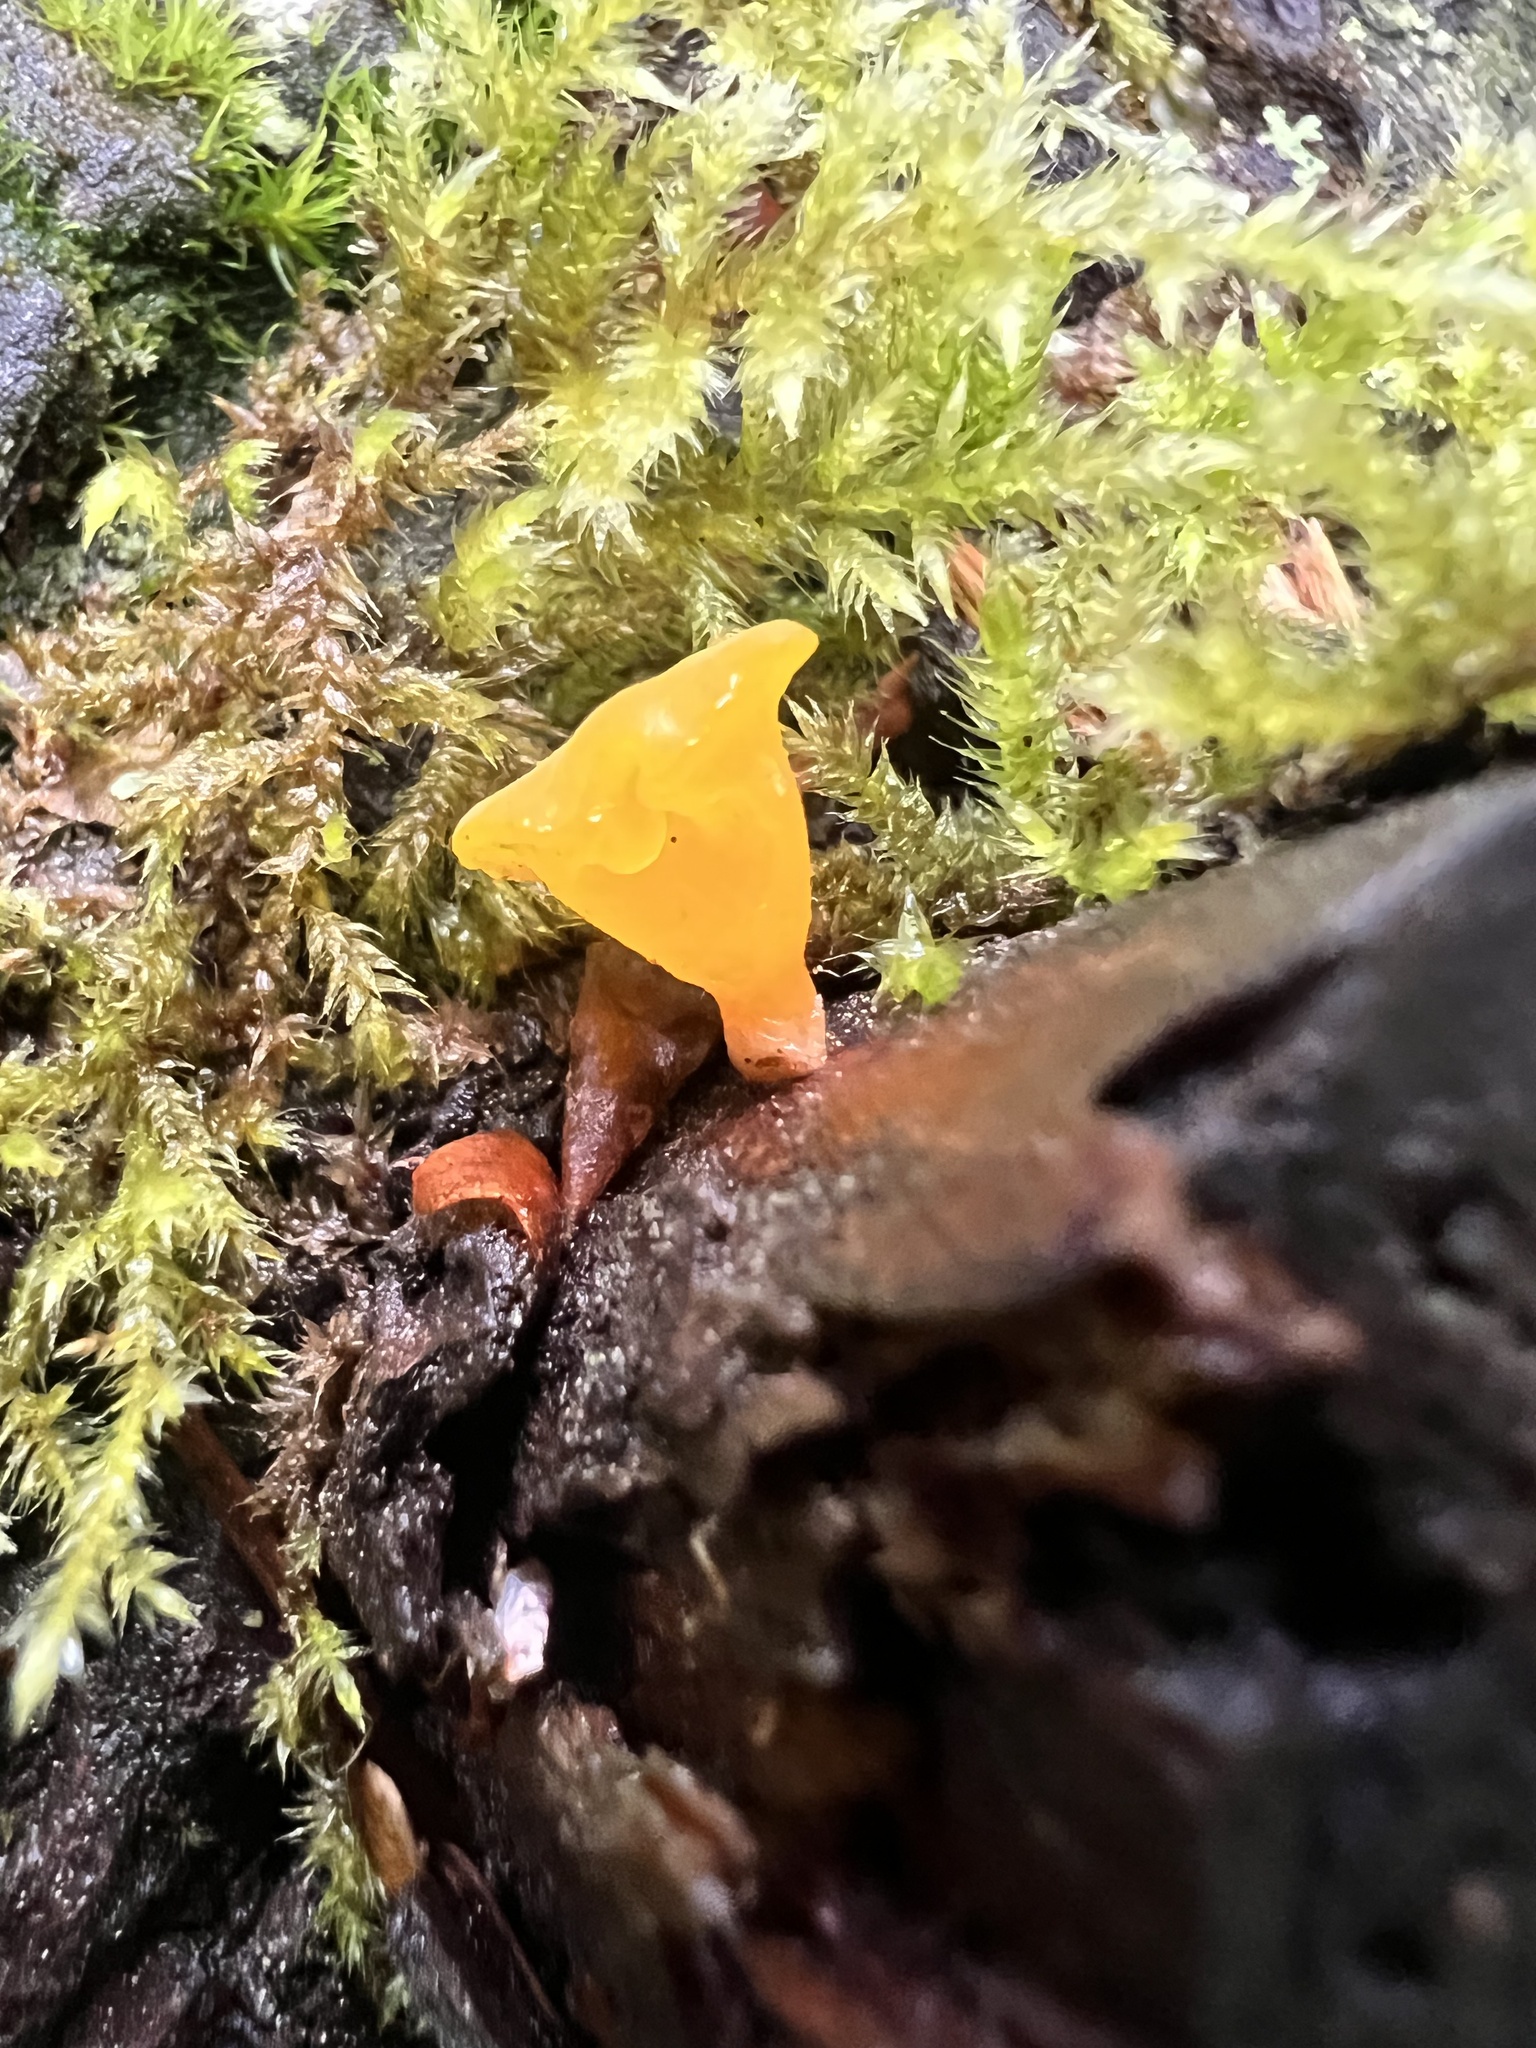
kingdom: Fungi
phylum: Basidiomycota
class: Dacrymycetes
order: Dacrymycetales
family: Dacrymycetaceae
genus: Guepiniopsis
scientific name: Guepiniopsis alpina
